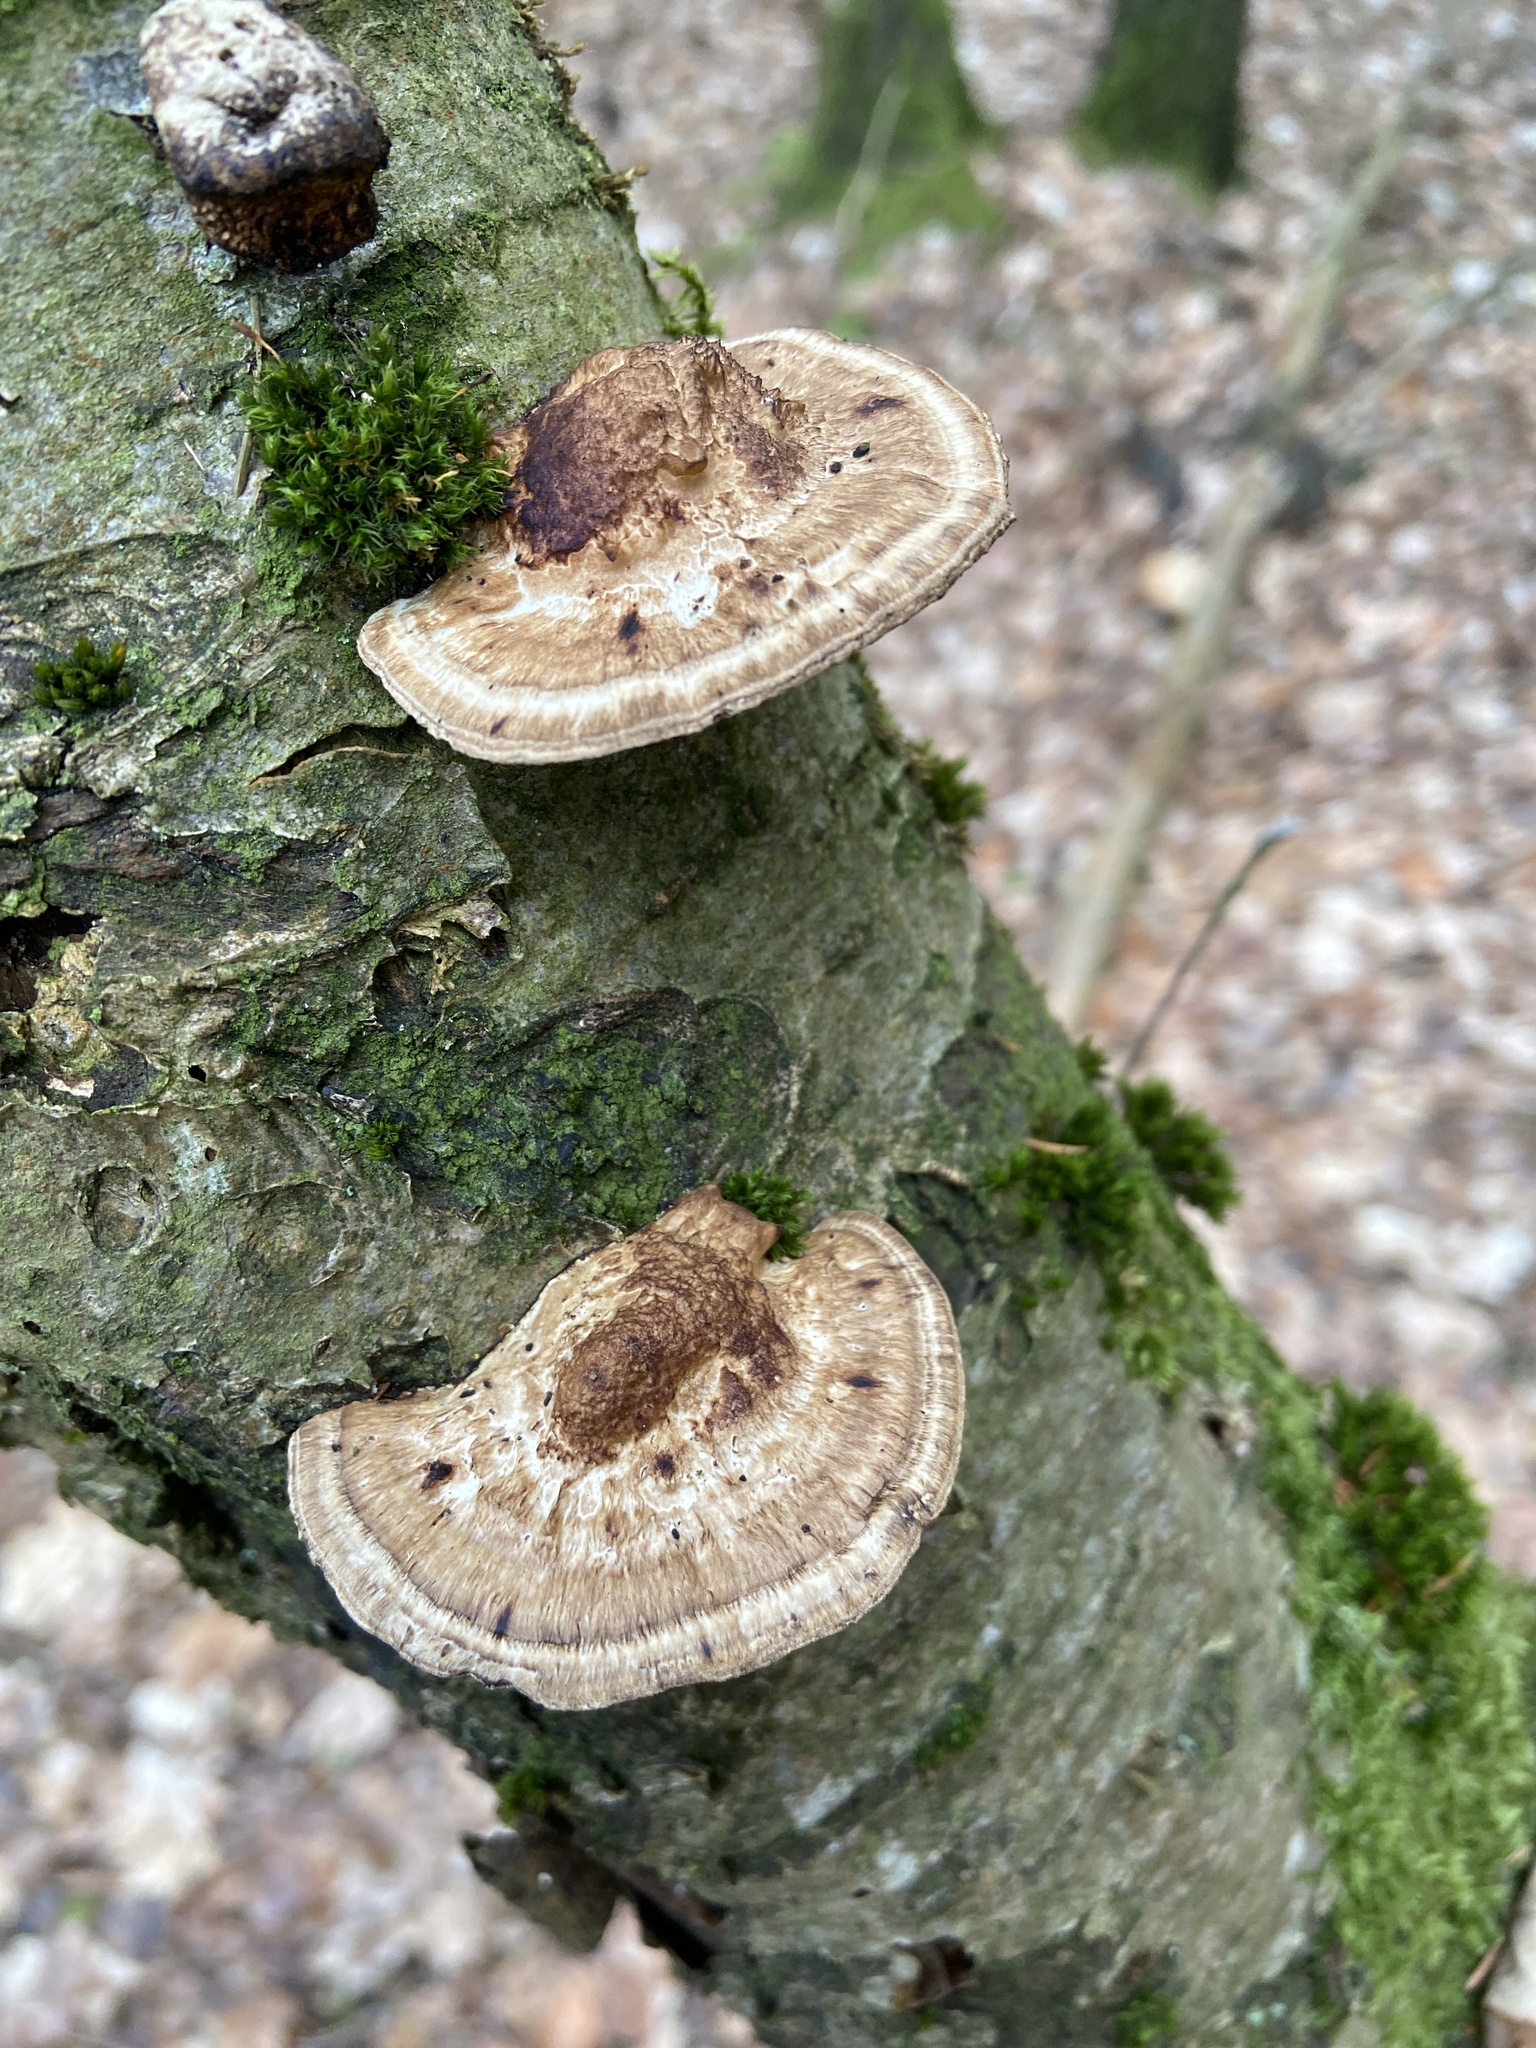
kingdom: Fungi
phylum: Basidiomycota
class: Agaricomycetes
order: Polyporales
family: Polyporaceae
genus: Daedaleopsis
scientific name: Daedaleopsis confragosa
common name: Blushing bracket
